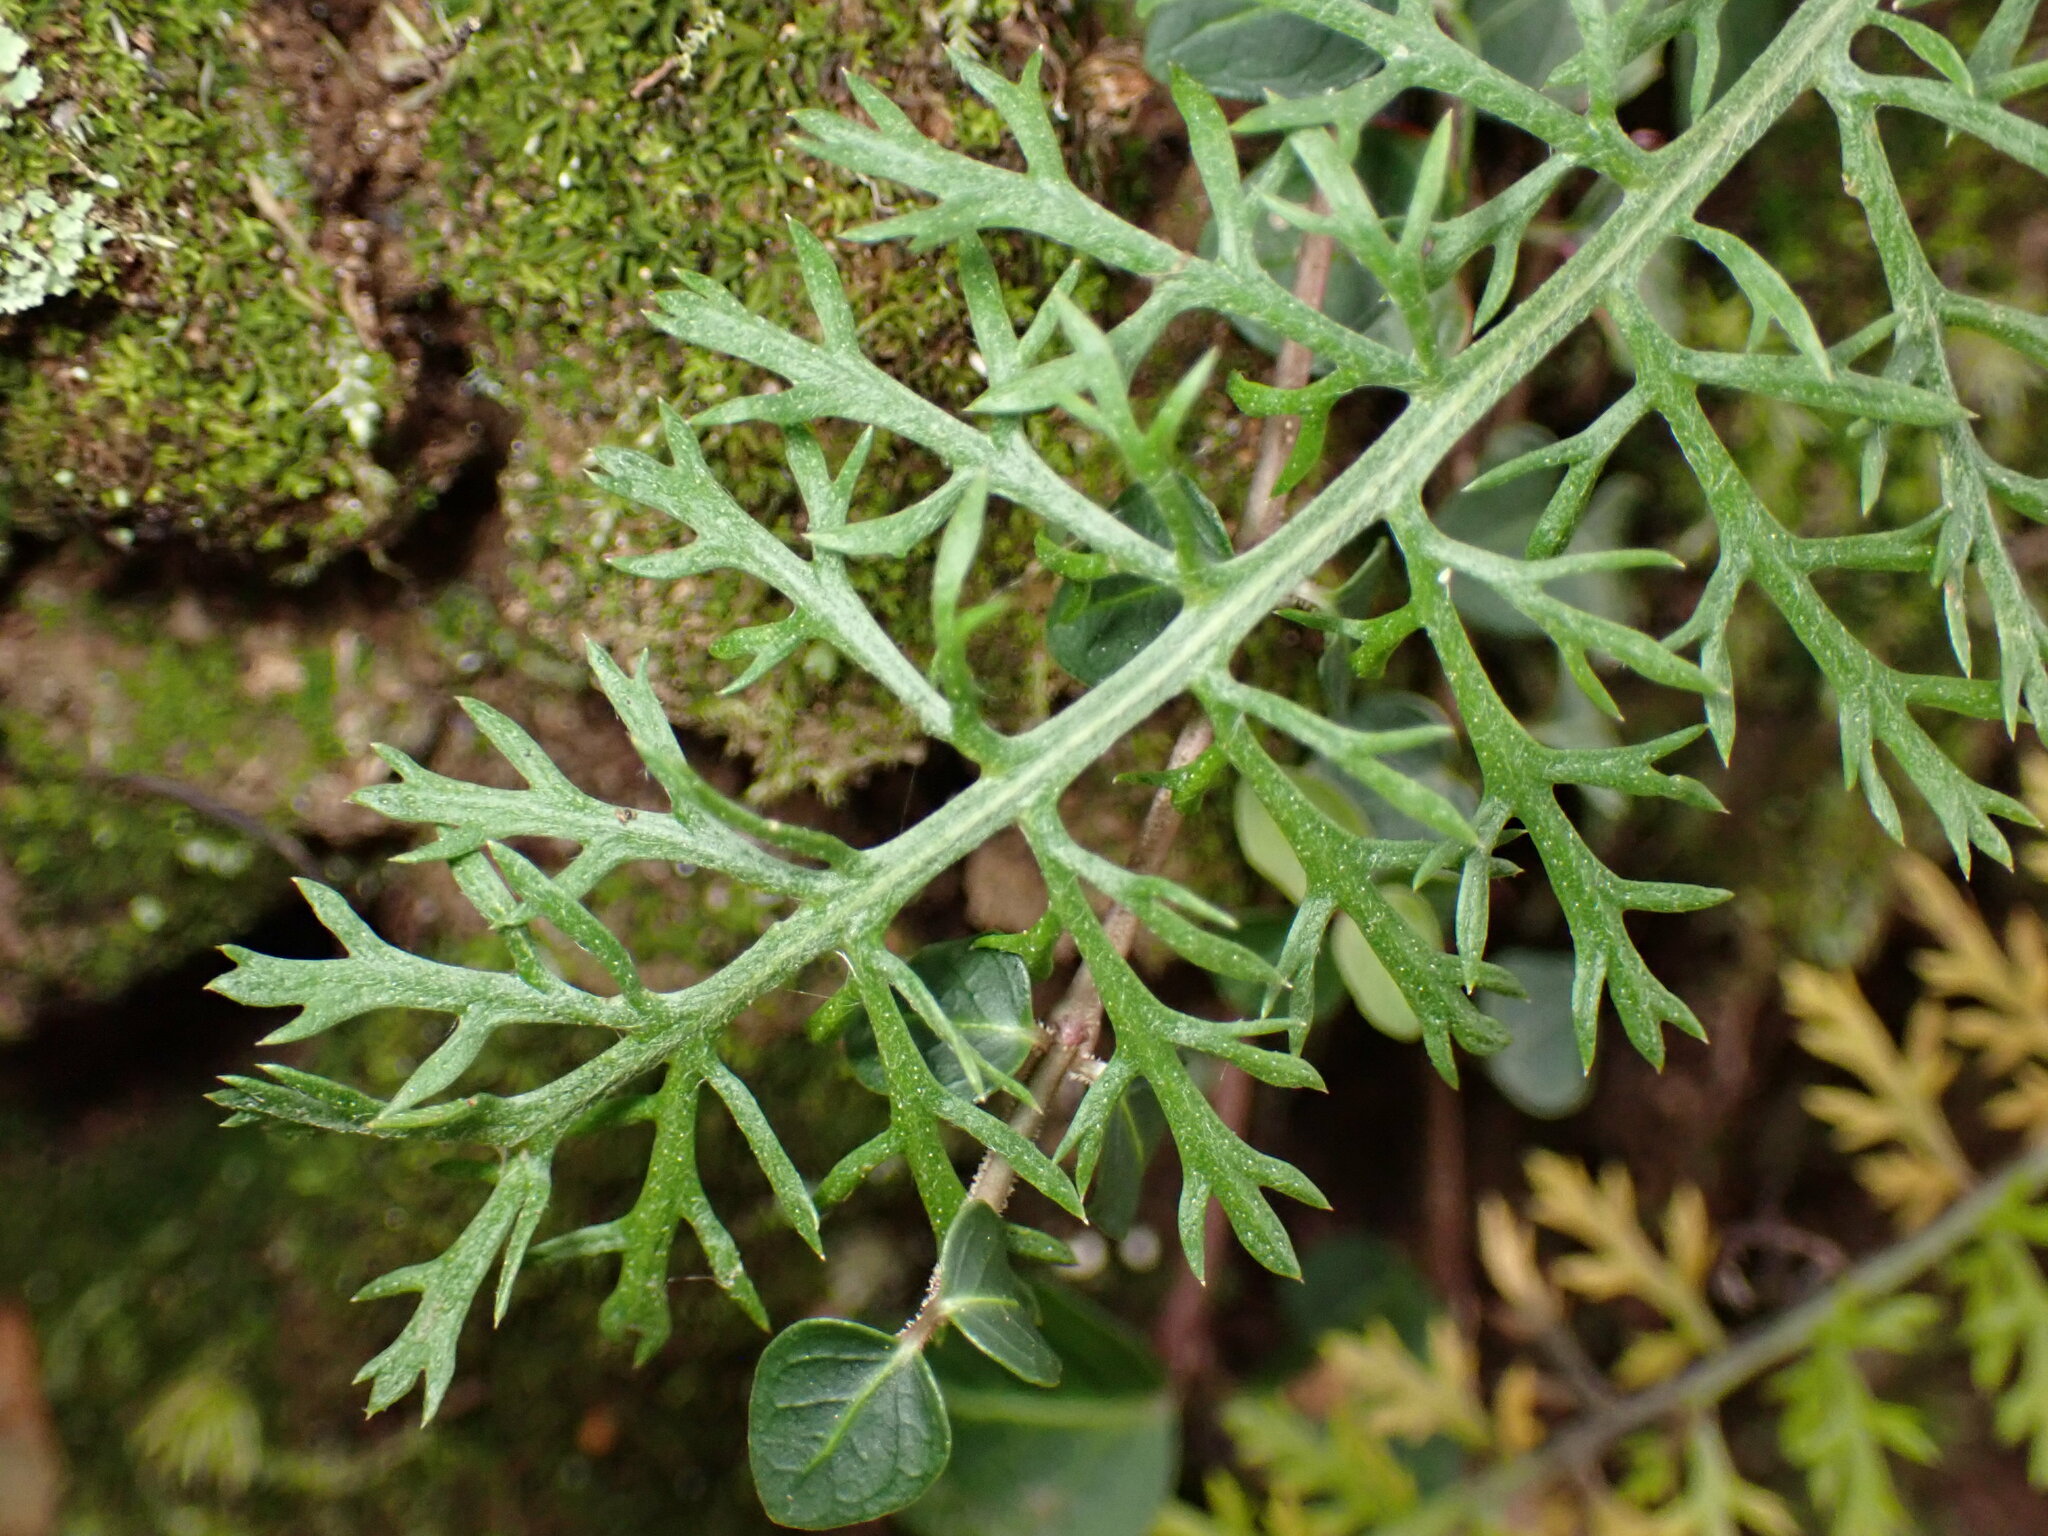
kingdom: Plantae
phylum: Tracheophyta
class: Magnoliopsida
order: Asterales
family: Asteraceae
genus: Achillea
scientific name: Achillea millefolium
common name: Yarrow
